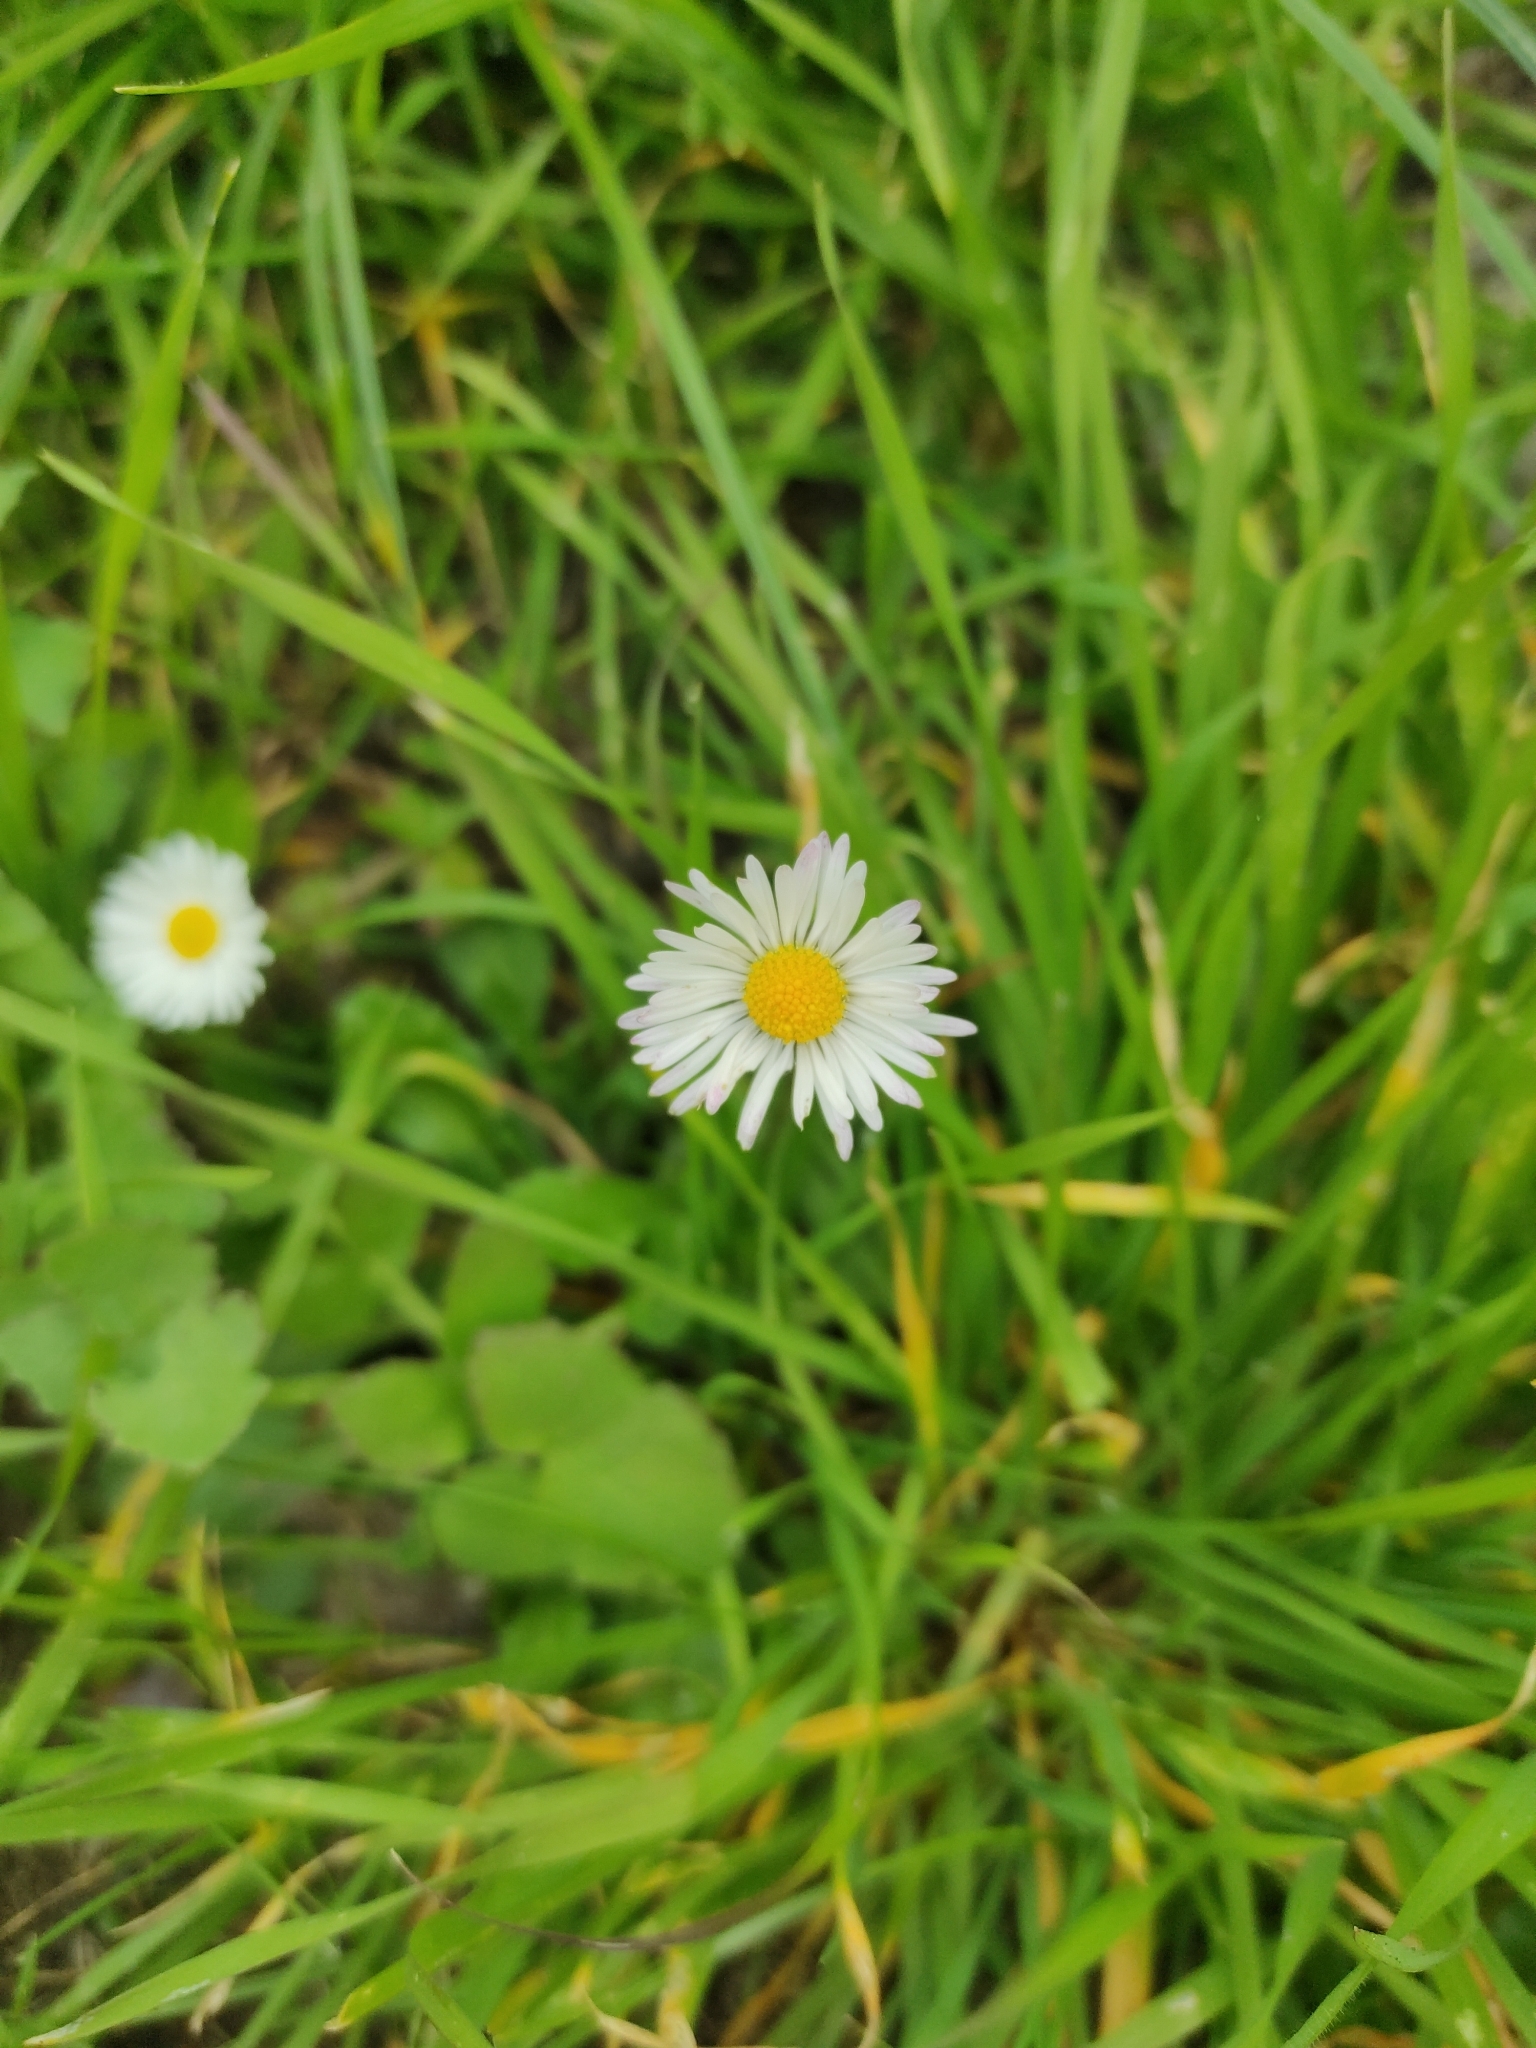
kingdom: Plantae
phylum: Tracheophyta
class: Magnoliopsida
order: Asterales
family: Asteraceae
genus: Bellis
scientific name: Bellis perennis
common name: Lawndaisy
